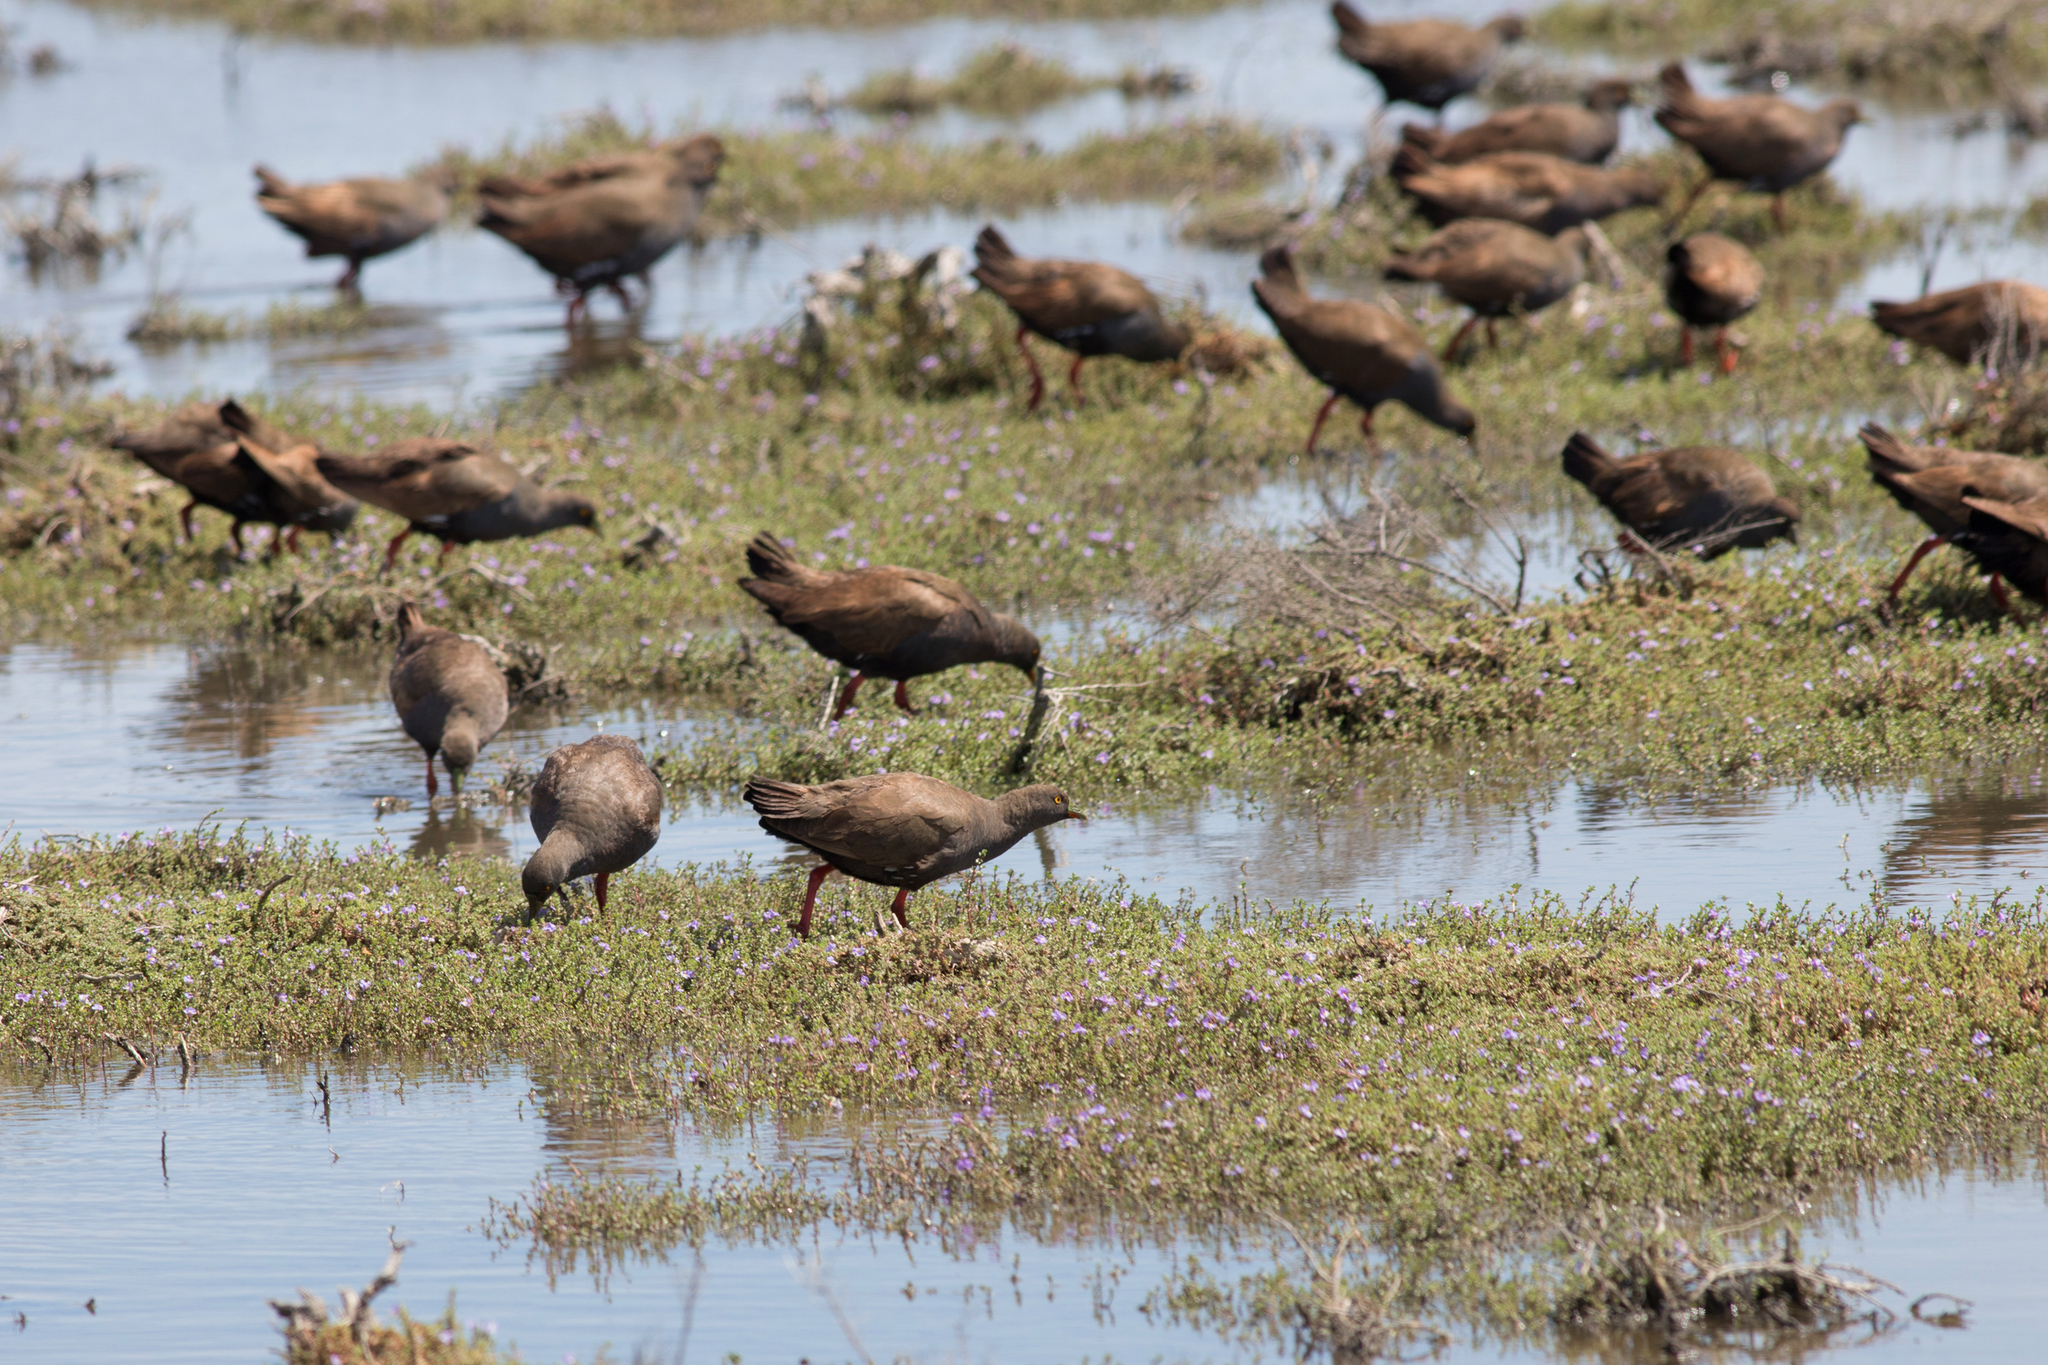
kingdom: Animalia
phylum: Chordata
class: Aves
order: Gruiformes
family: Rallidae
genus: Gallinula
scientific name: Gallinula ventralis
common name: Black-tailed nativehen
